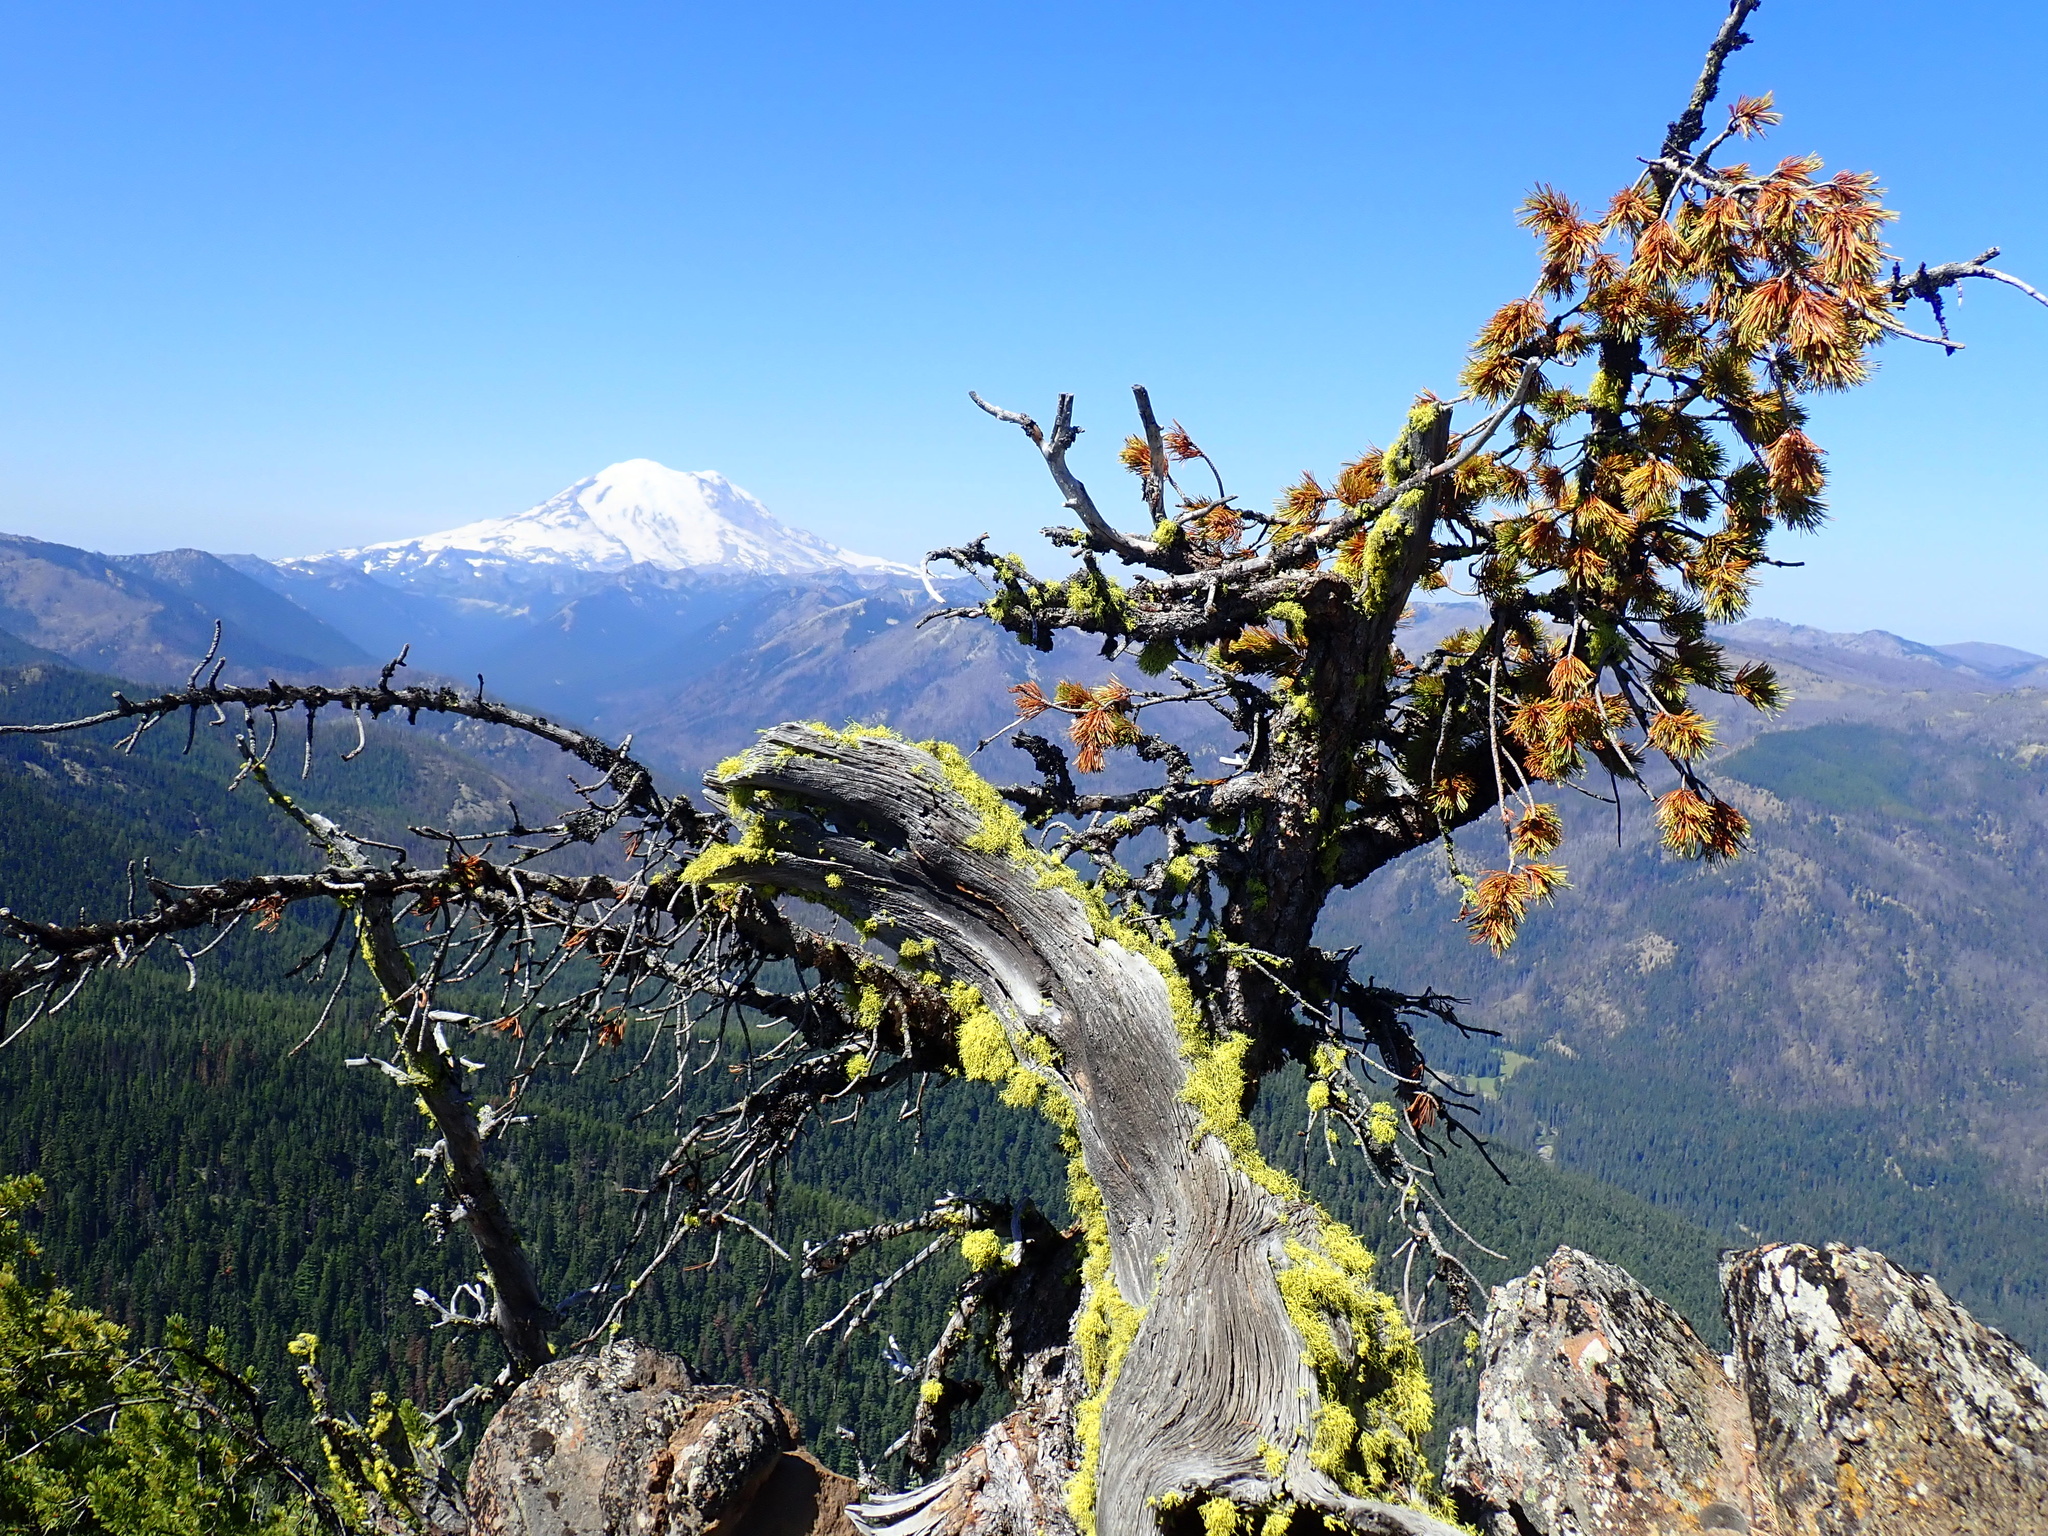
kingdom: Plantae
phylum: Tracheophyta
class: Pinopsida
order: Pinales
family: Pinaceae
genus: Pinus
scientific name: Pinus albicaulis
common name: Whitebark pine
